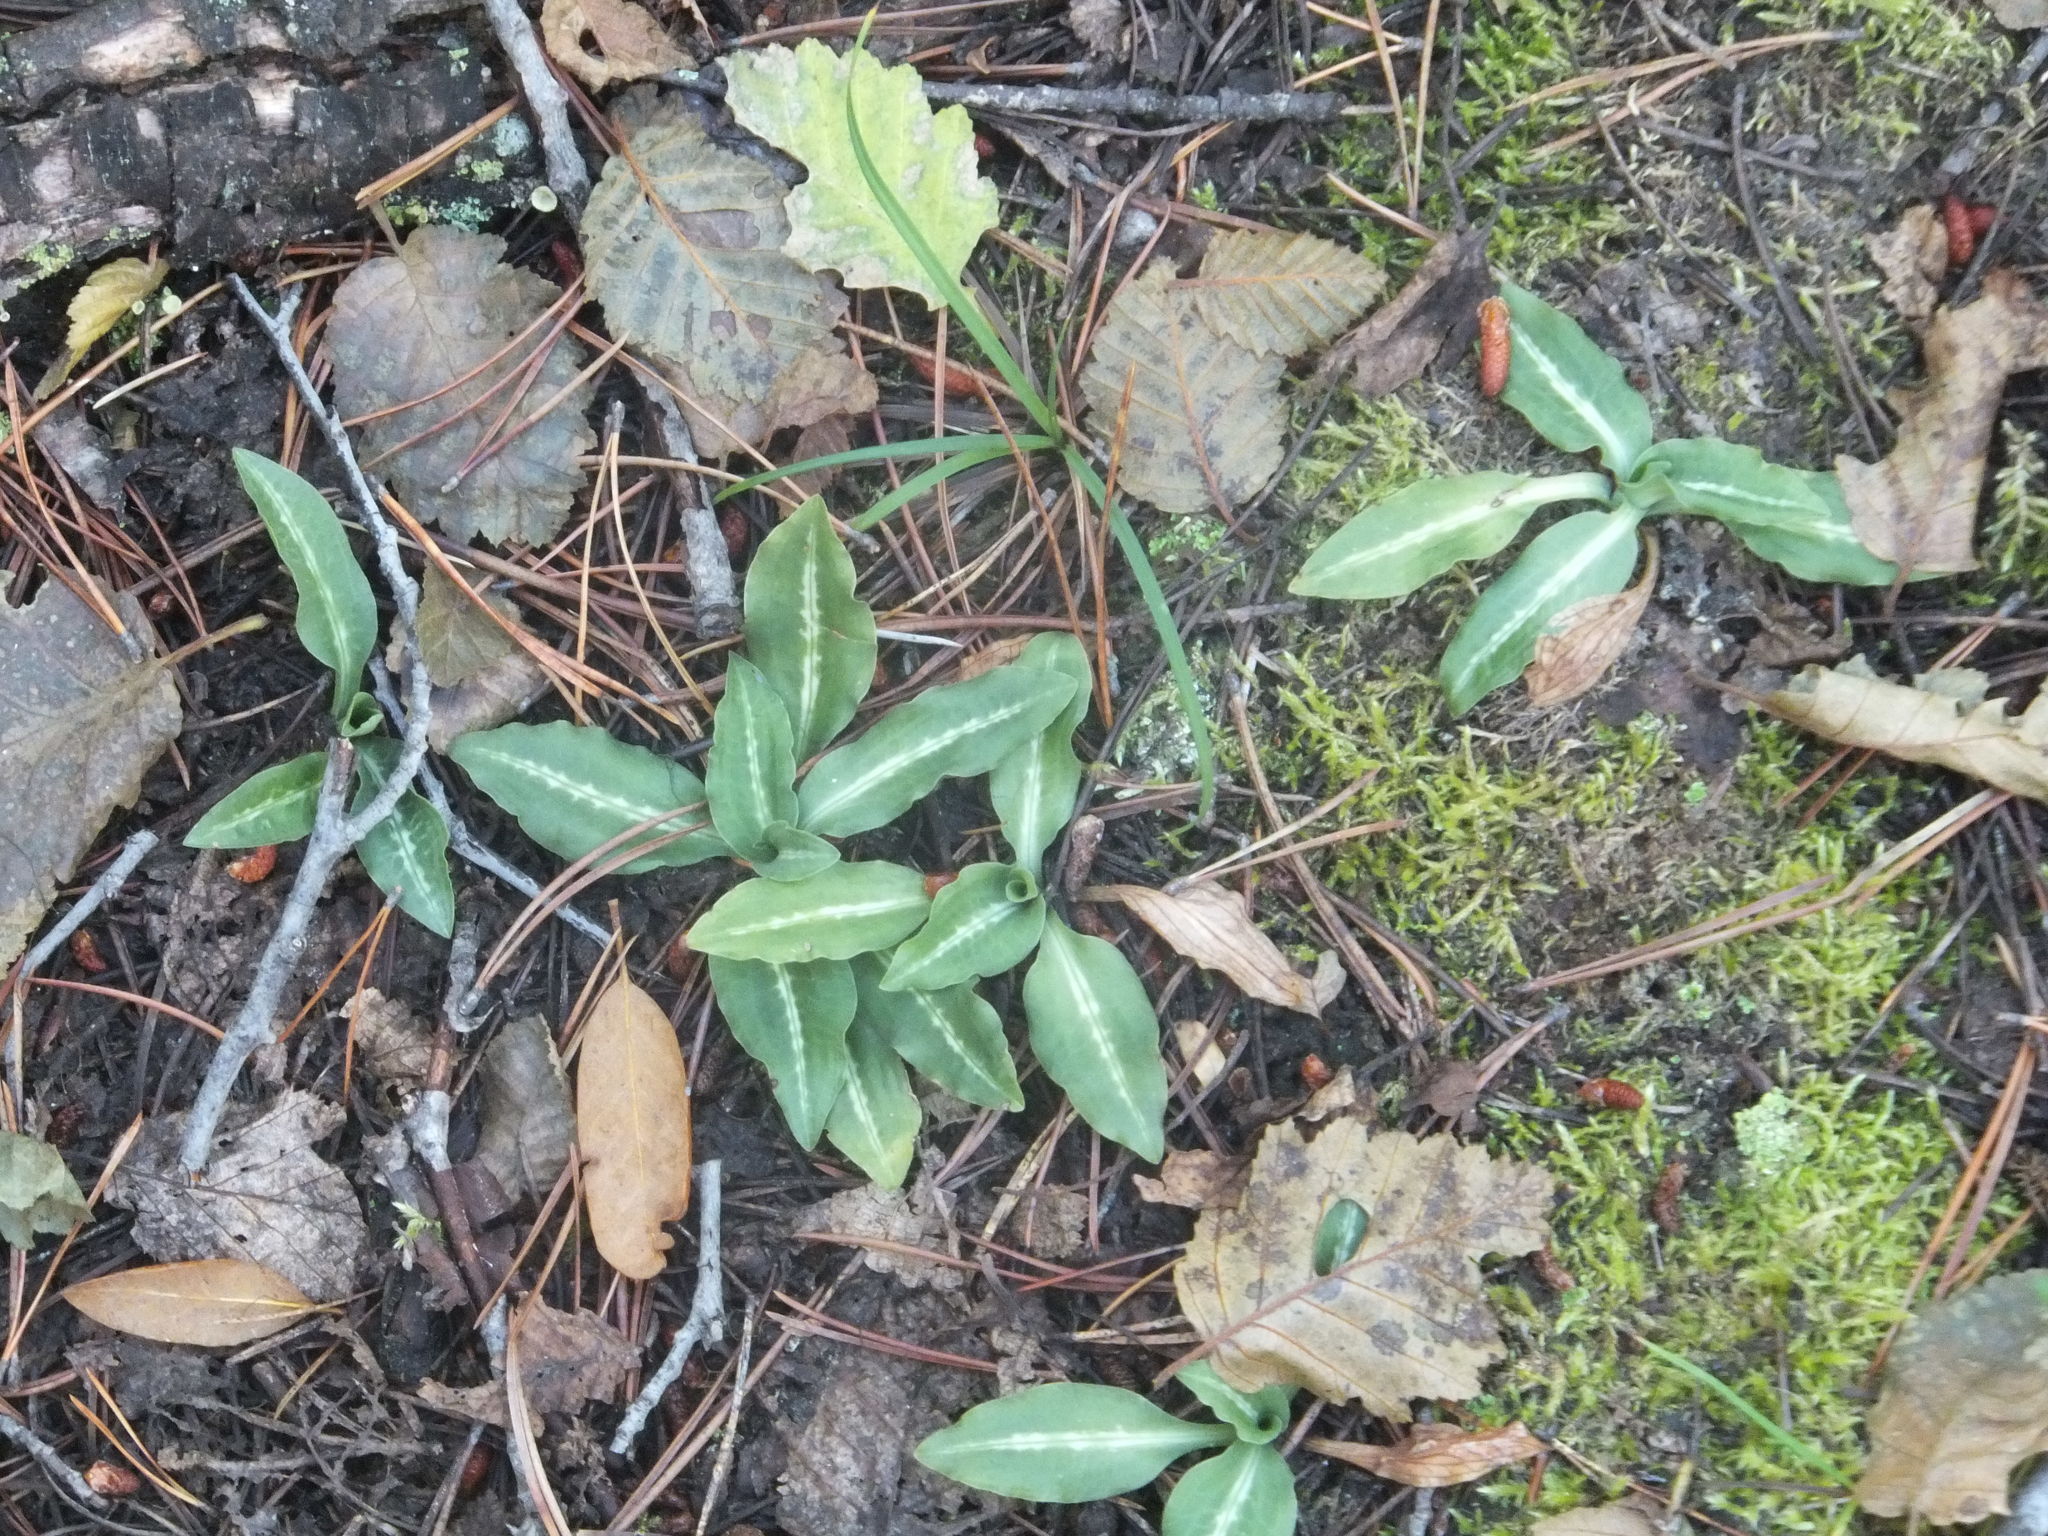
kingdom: Plantae
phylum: Tracheophyta
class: Liliopsida
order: Asparagales
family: Orchidaceae
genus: Goodyera
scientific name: Goodyera oblongifolia
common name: Giant rattlesnake-plantain
